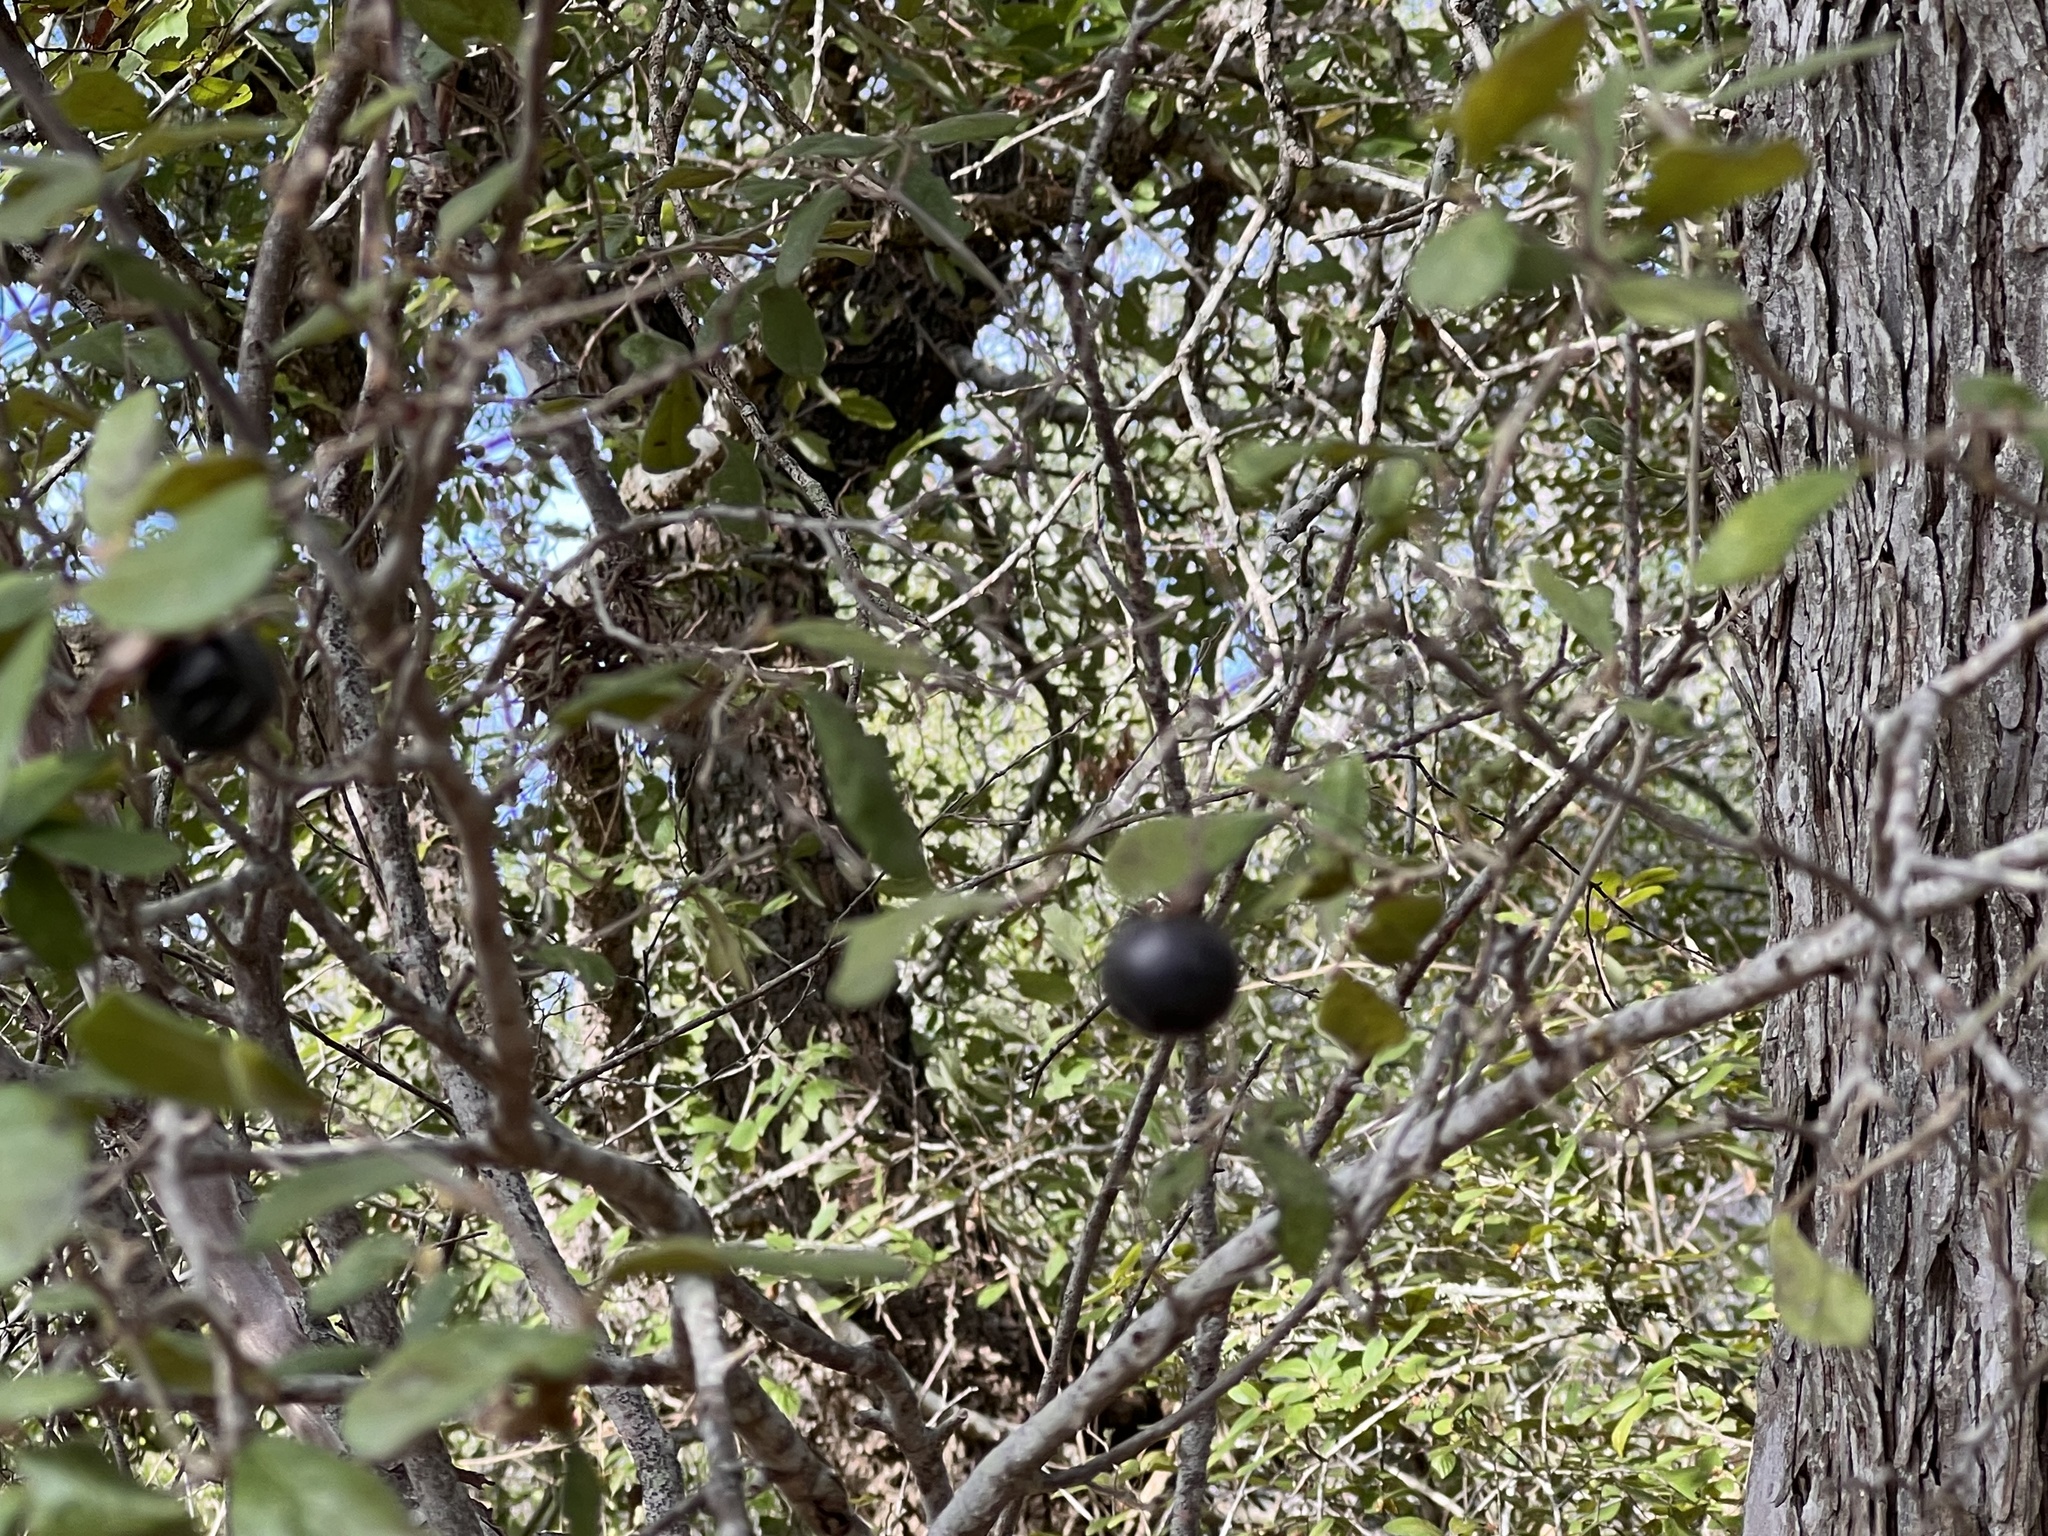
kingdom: Plantae
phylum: Tracheophyta
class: Magnoliopsida
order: Ericales
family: Ebenaceae
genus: Diospyros
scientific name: Diospyros texana
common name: Texas persimmon
